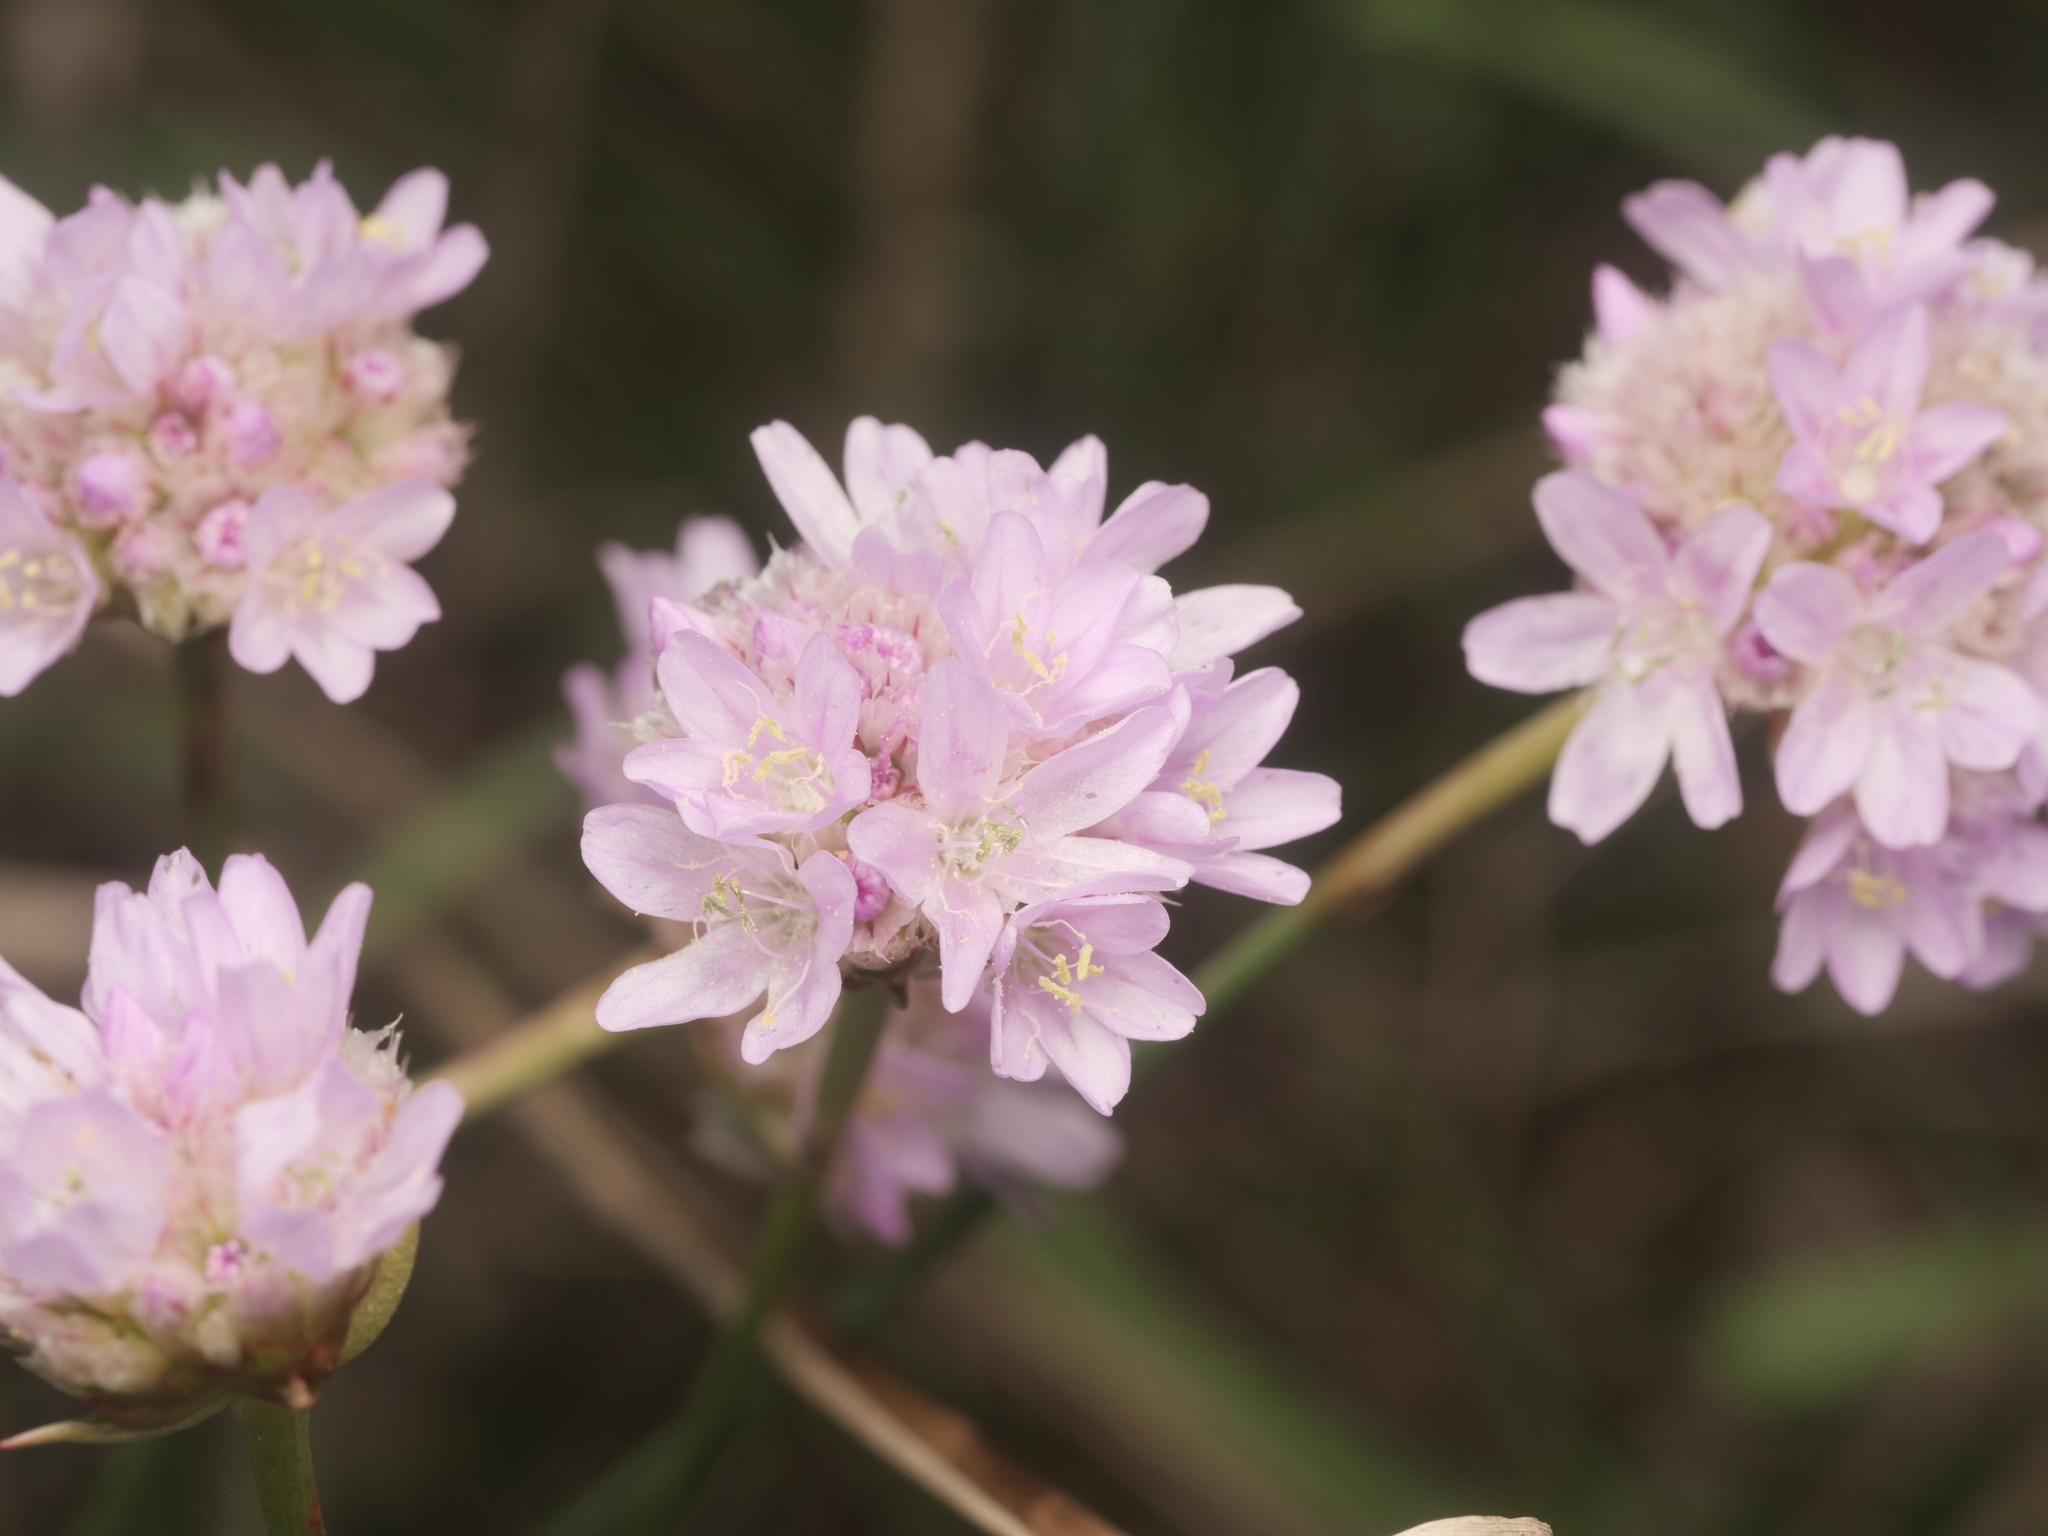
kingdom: Plantae
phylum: Tracheophyta
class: Magnoliopsida
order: Caryophyllales
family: Plumbaginaceae
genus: Armeria
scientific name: Armeria maritima
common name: Thrift
